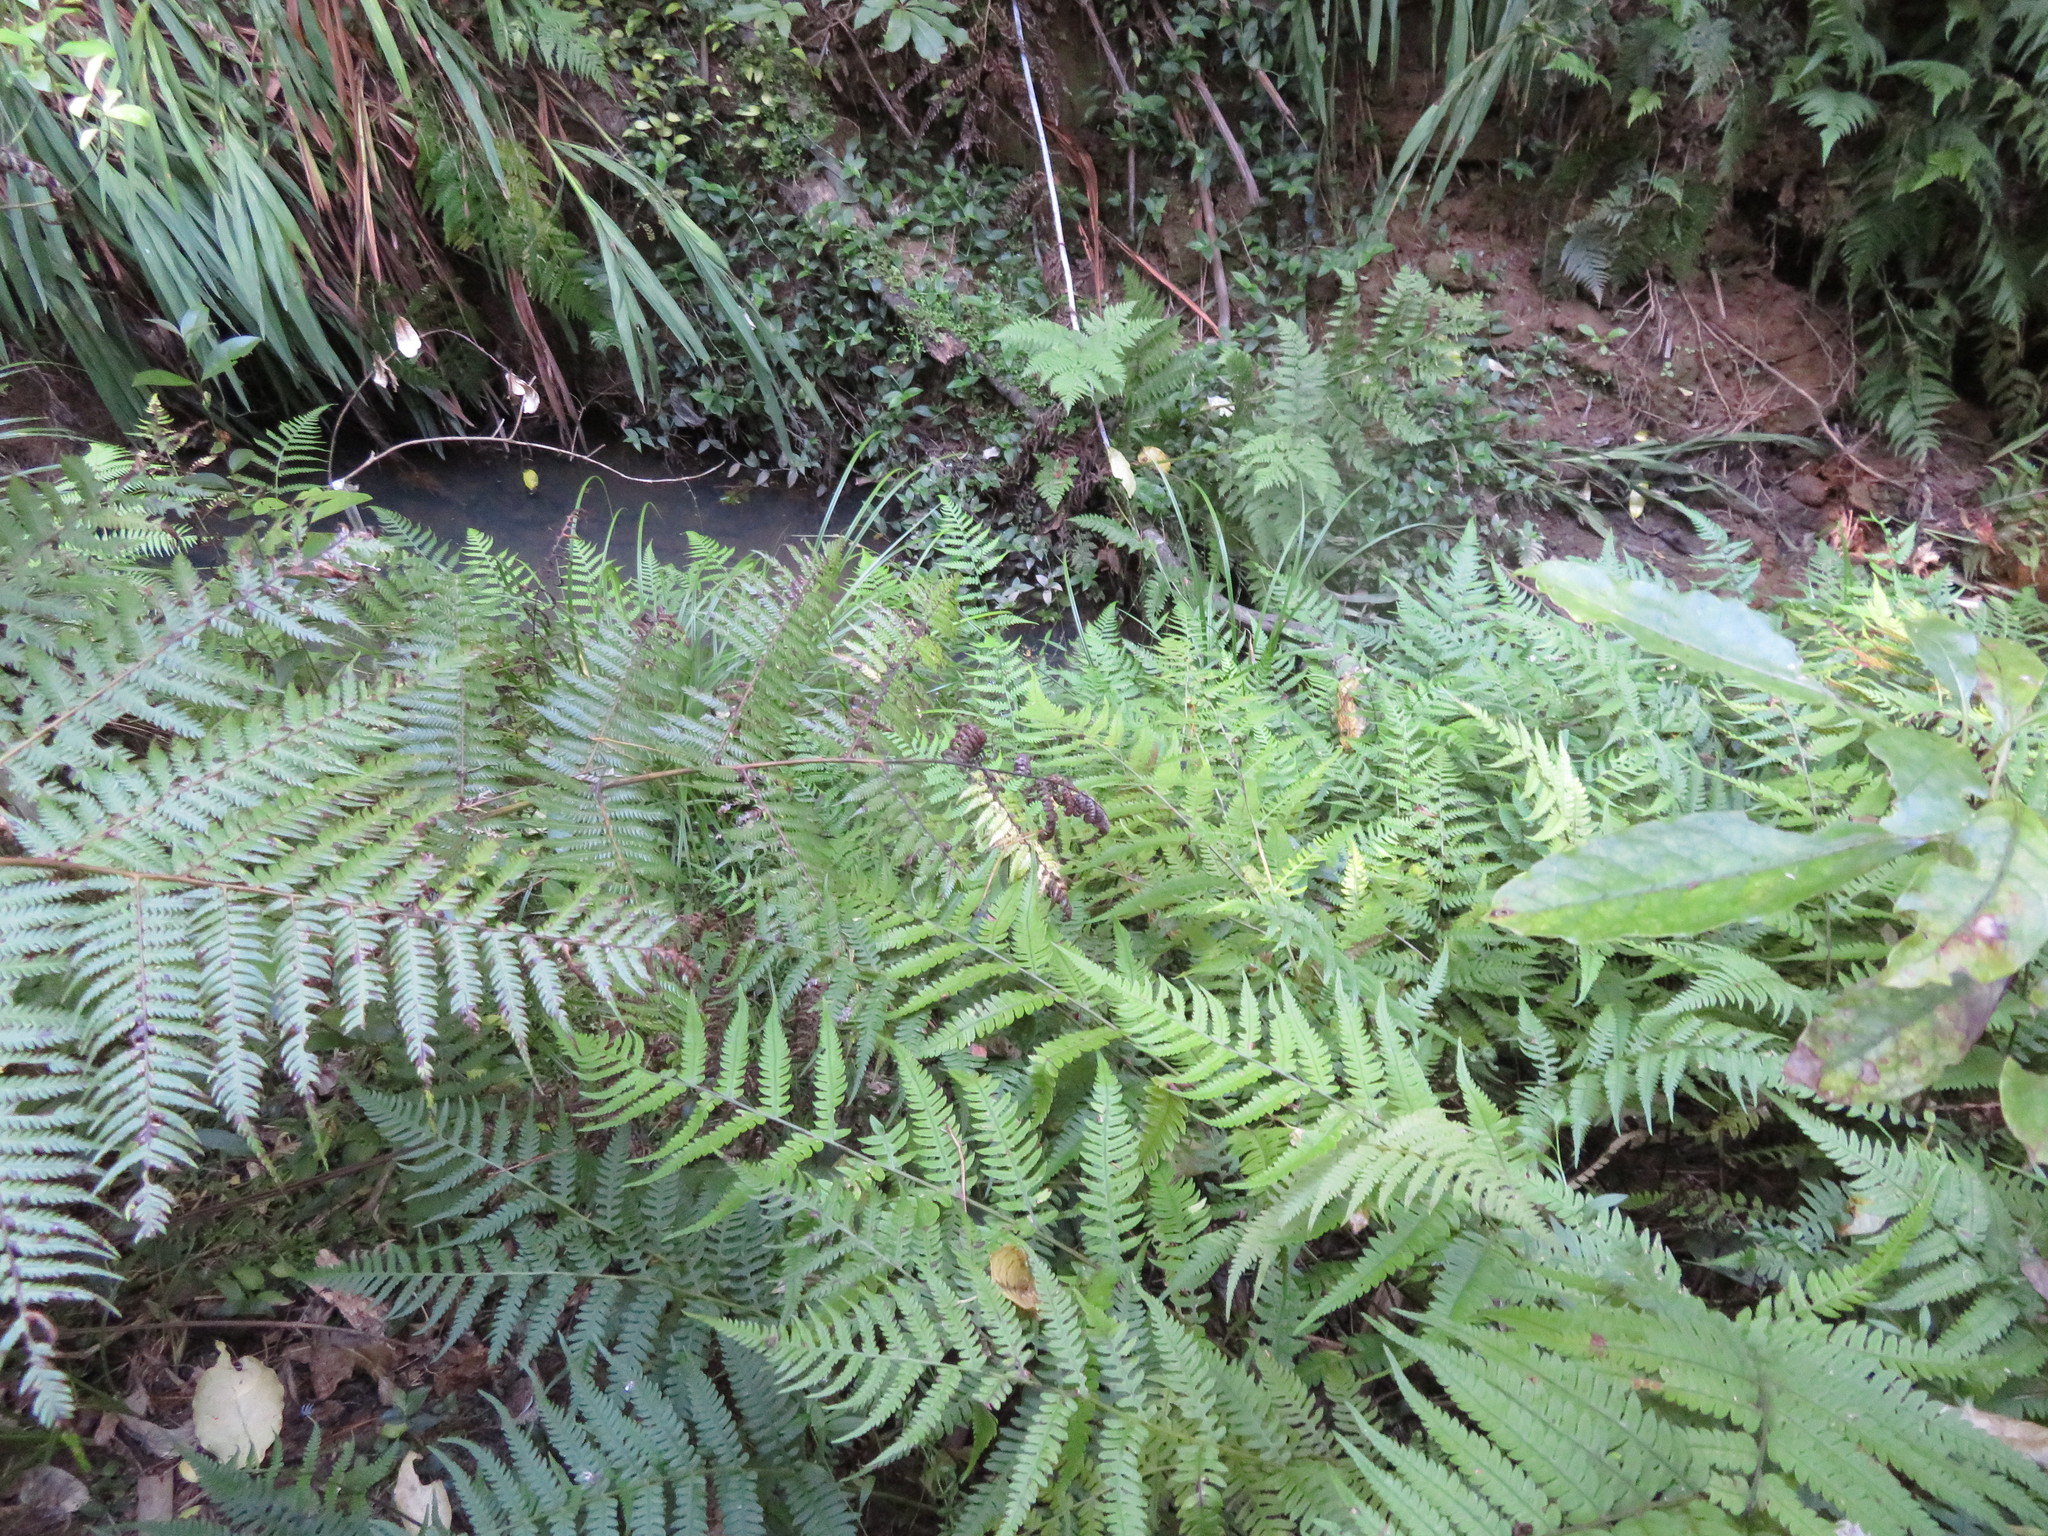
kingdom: Plantae
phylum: Tracheophyta
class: Polypodiopsida
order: Polypodiales
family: Athyriaceae
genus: Deparia
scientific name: Deparia petersenii
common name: Japanese false spleenwort
